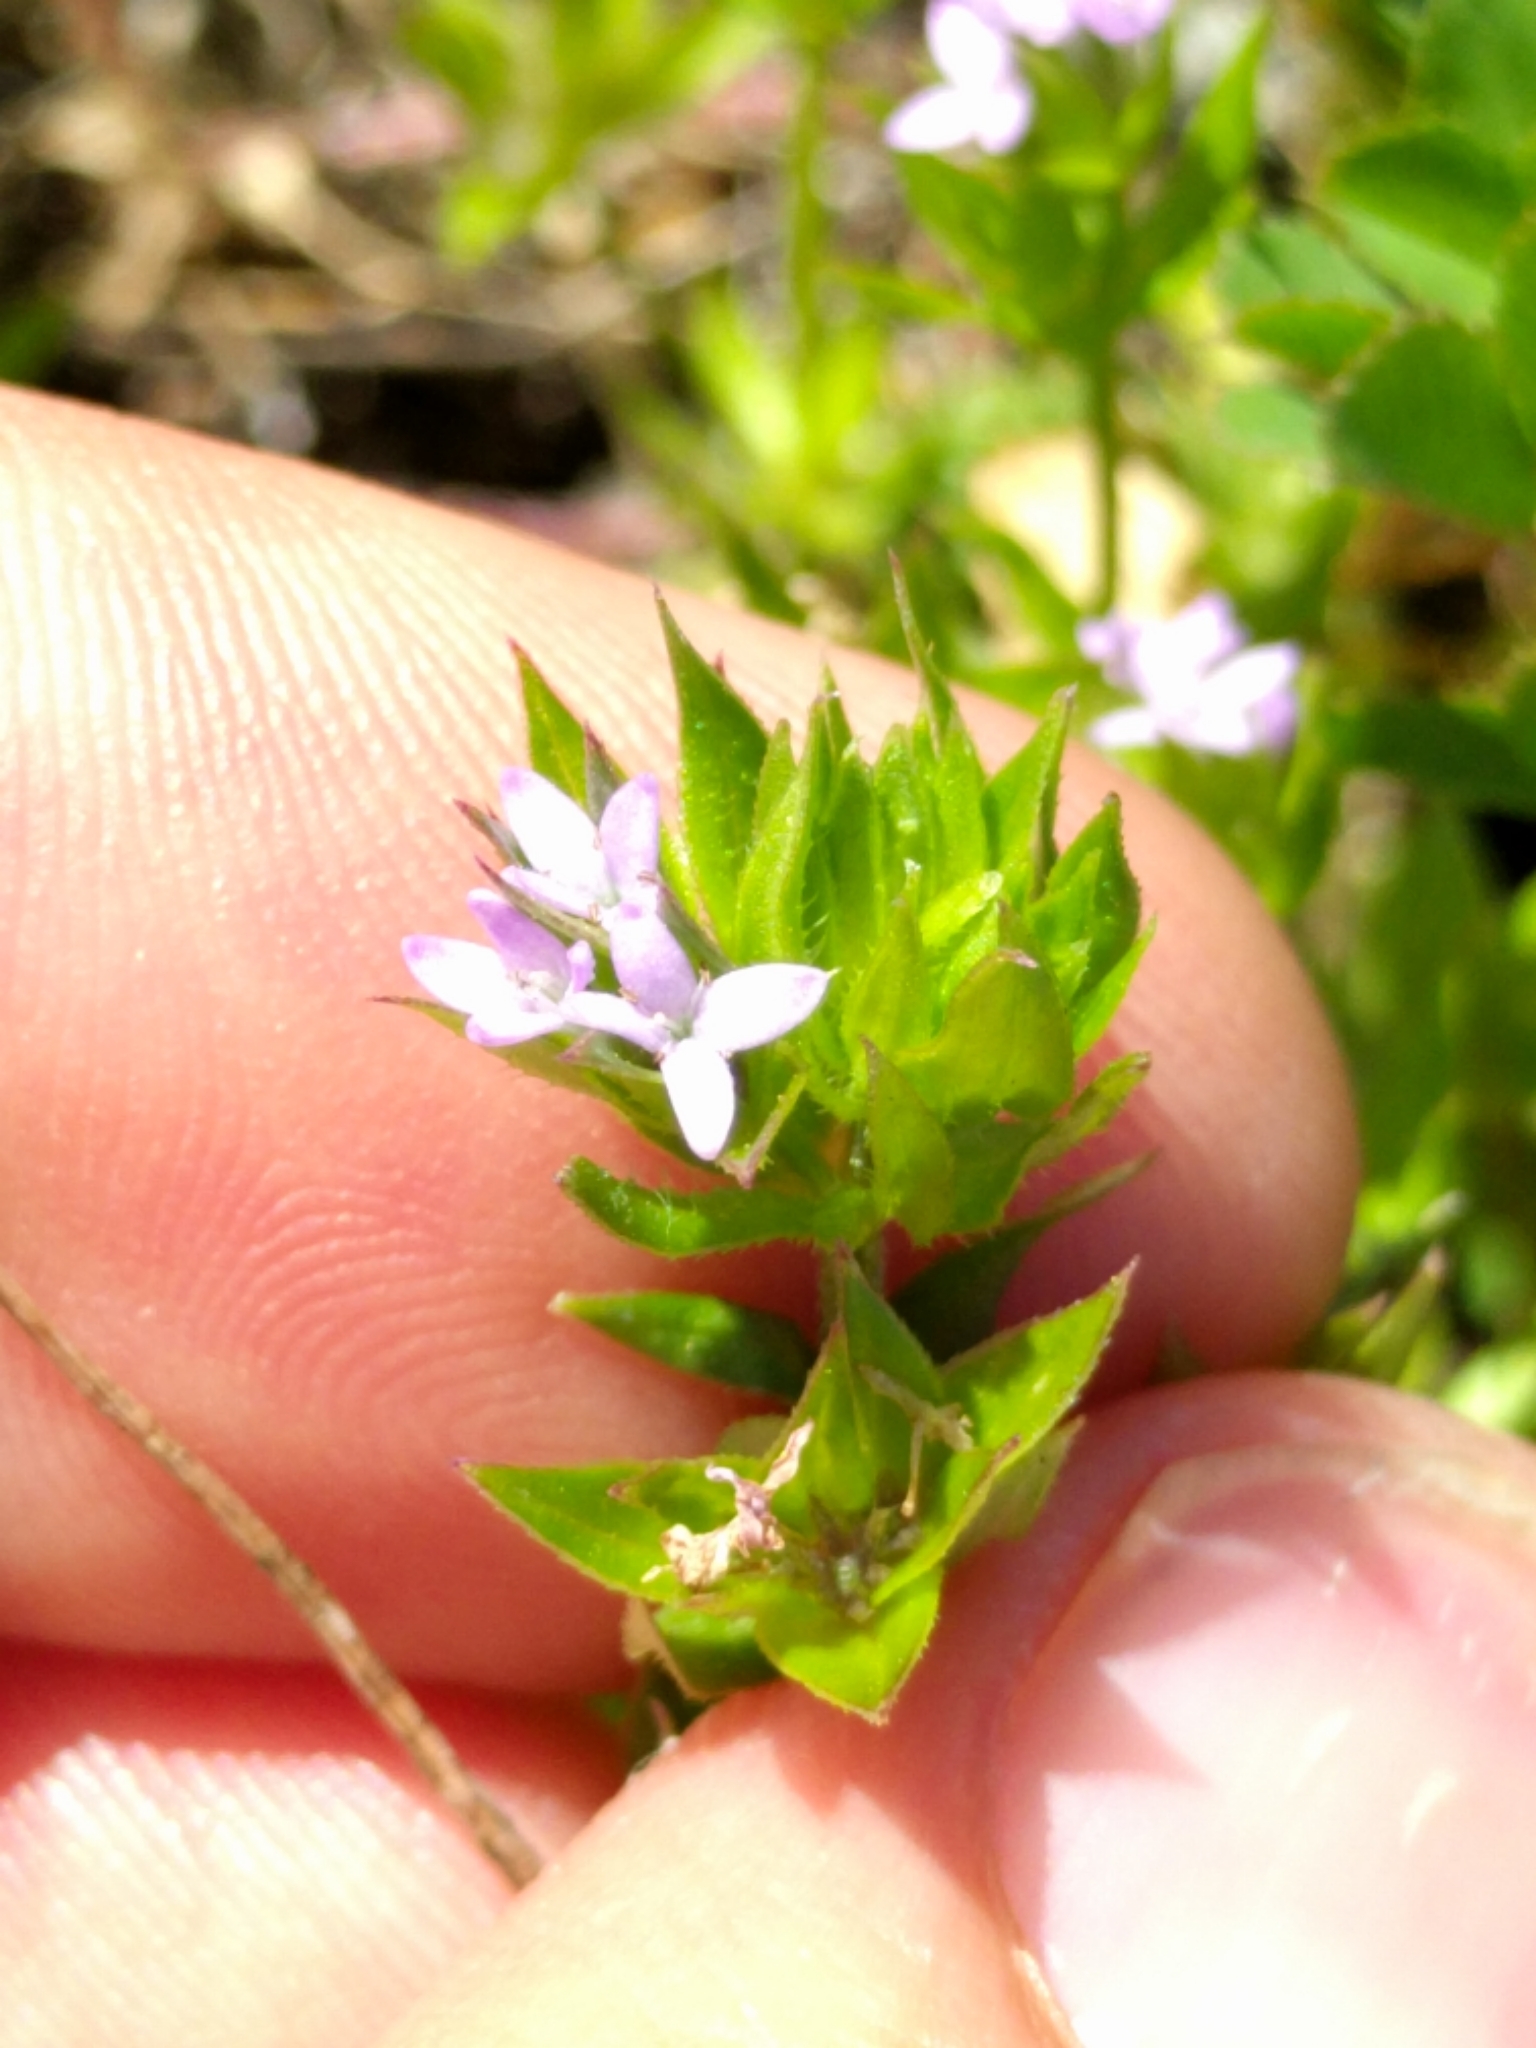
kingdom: Plantae
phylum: Tracheophyta
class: Magnoliopsida
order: Gentianales
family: Rubiaceae
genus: Sherardia
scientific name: Sherardia arvensis
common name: Field madder
